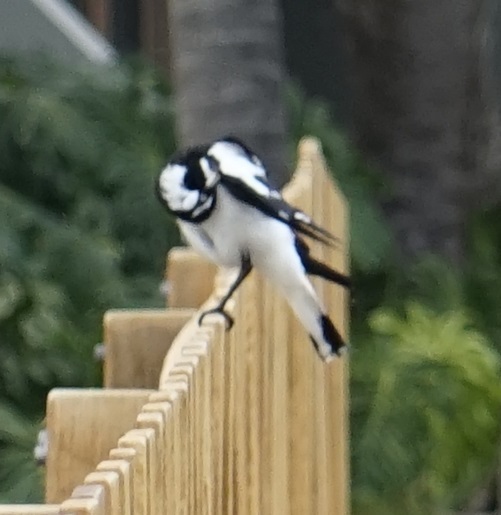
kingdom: Animalia
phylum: Chordata
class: Aves
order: Passeriformes
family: Monarchidae
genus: Grallina
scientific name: Grallina cyanoleuca
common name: Magpie-lark
